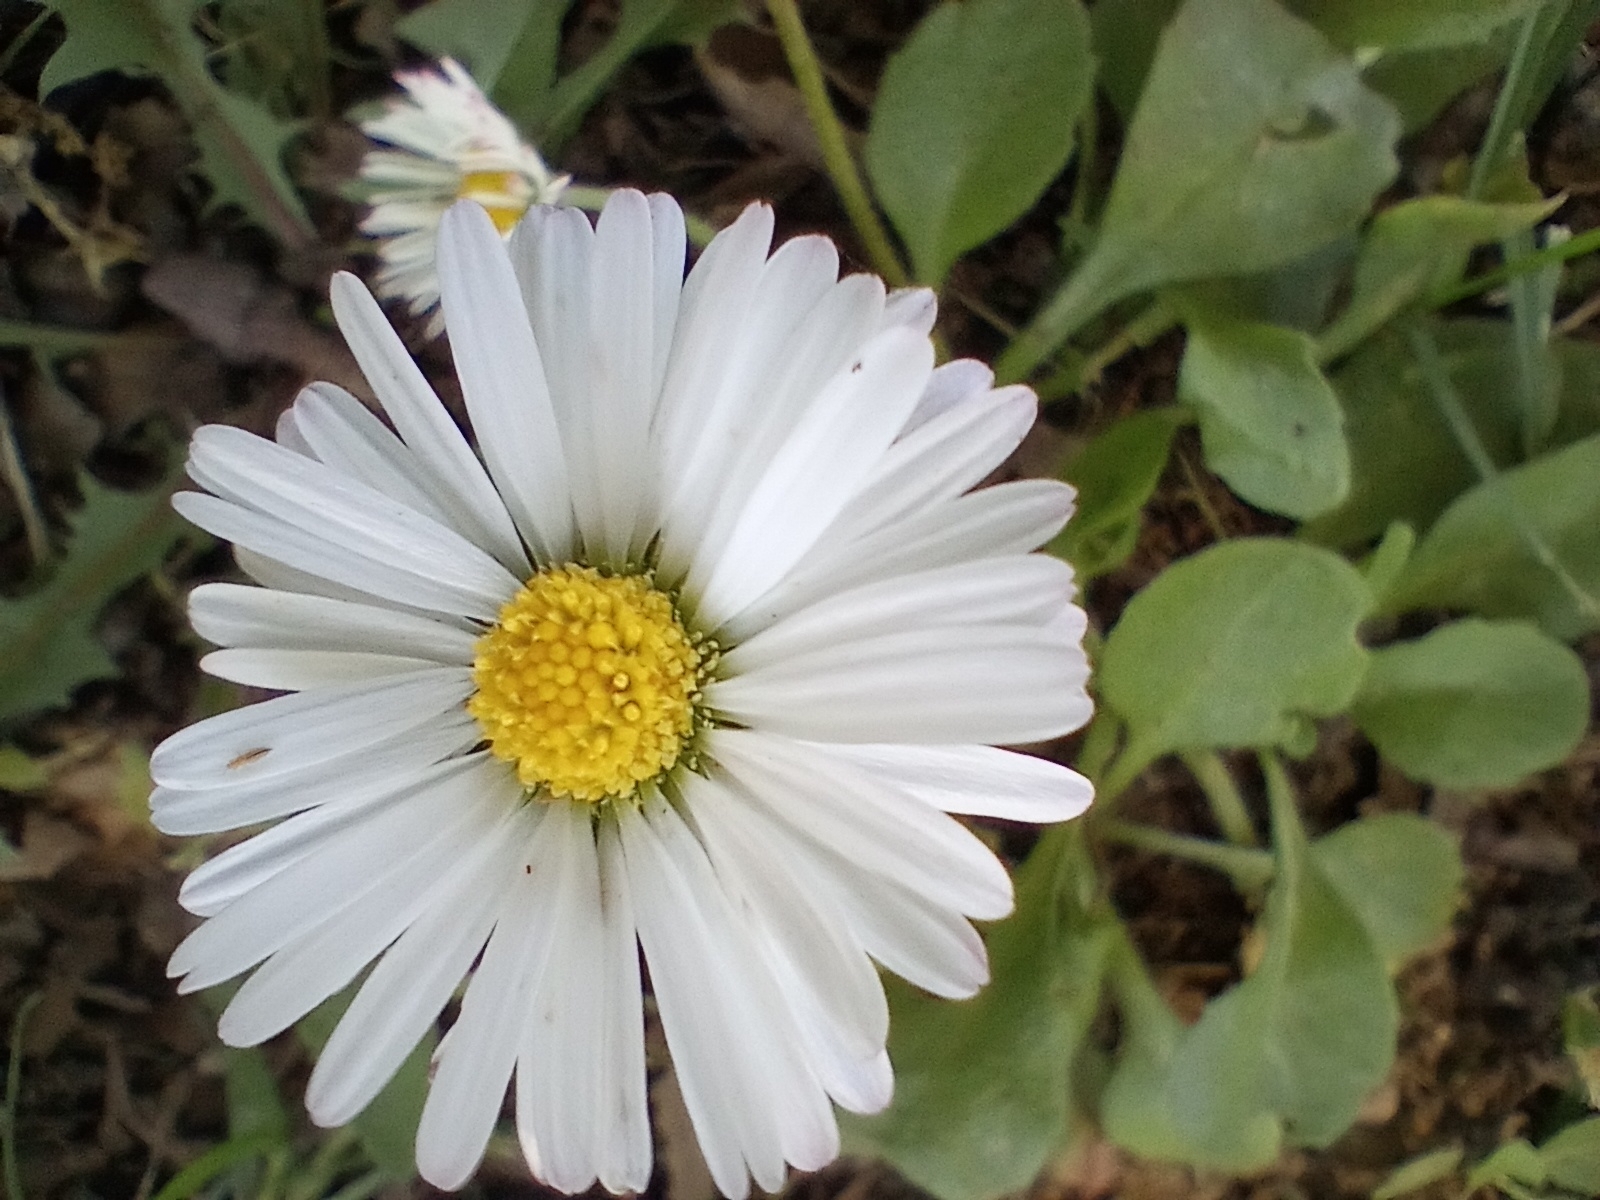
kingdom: Plantae
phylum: Tracheophyta
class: Magnoliopsida
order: Asterales
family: Asteraceae
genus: Bellis
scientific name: Bellis perennis
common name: Lawndaisy
